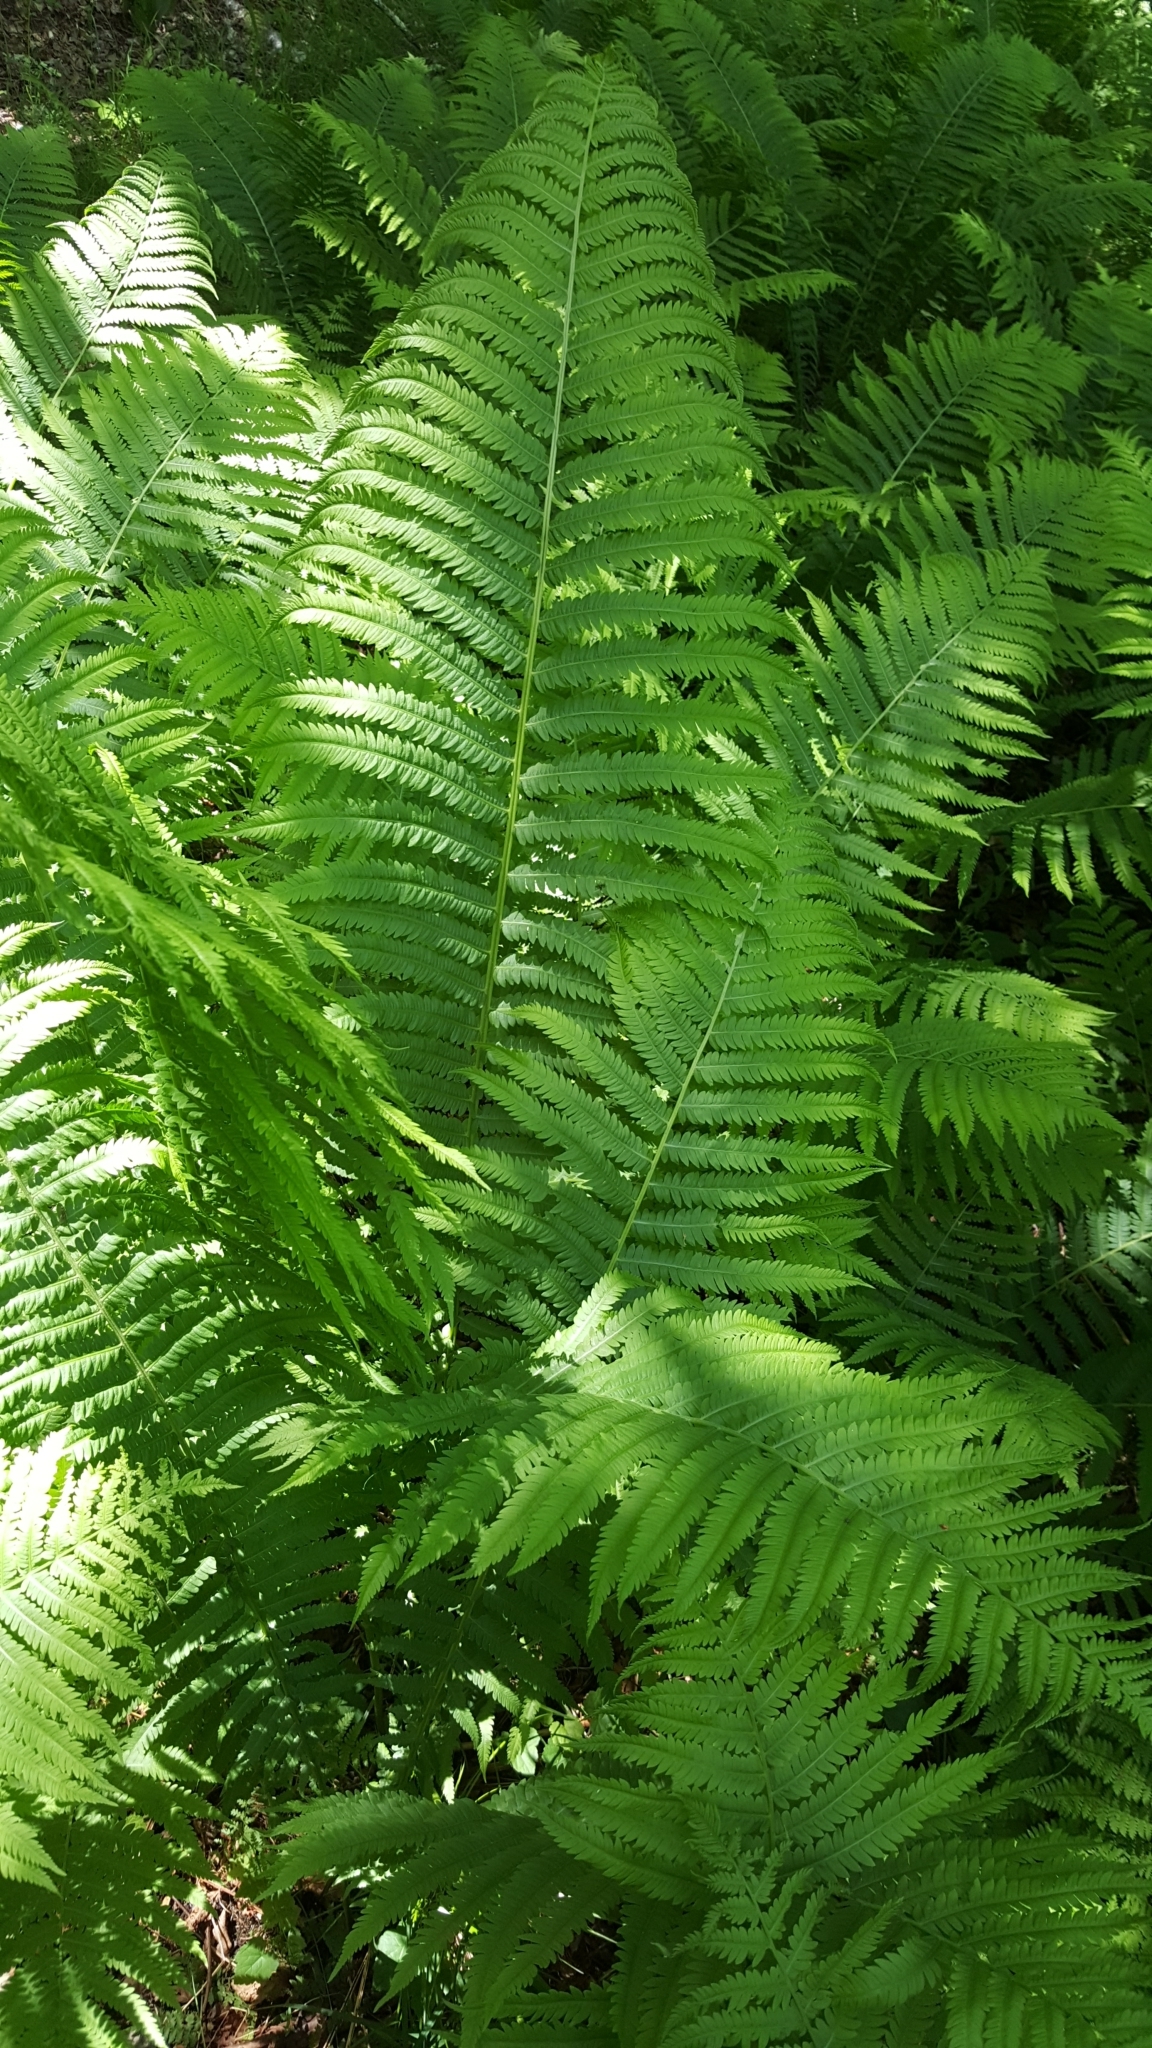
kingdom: Plantae
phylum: Tracheophyta
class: Polypodiopsida
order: Polypodiales
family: Onocleaceae
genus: Matteuccia
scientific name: Matteuccia struthiopteris
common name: Ostrich fern
